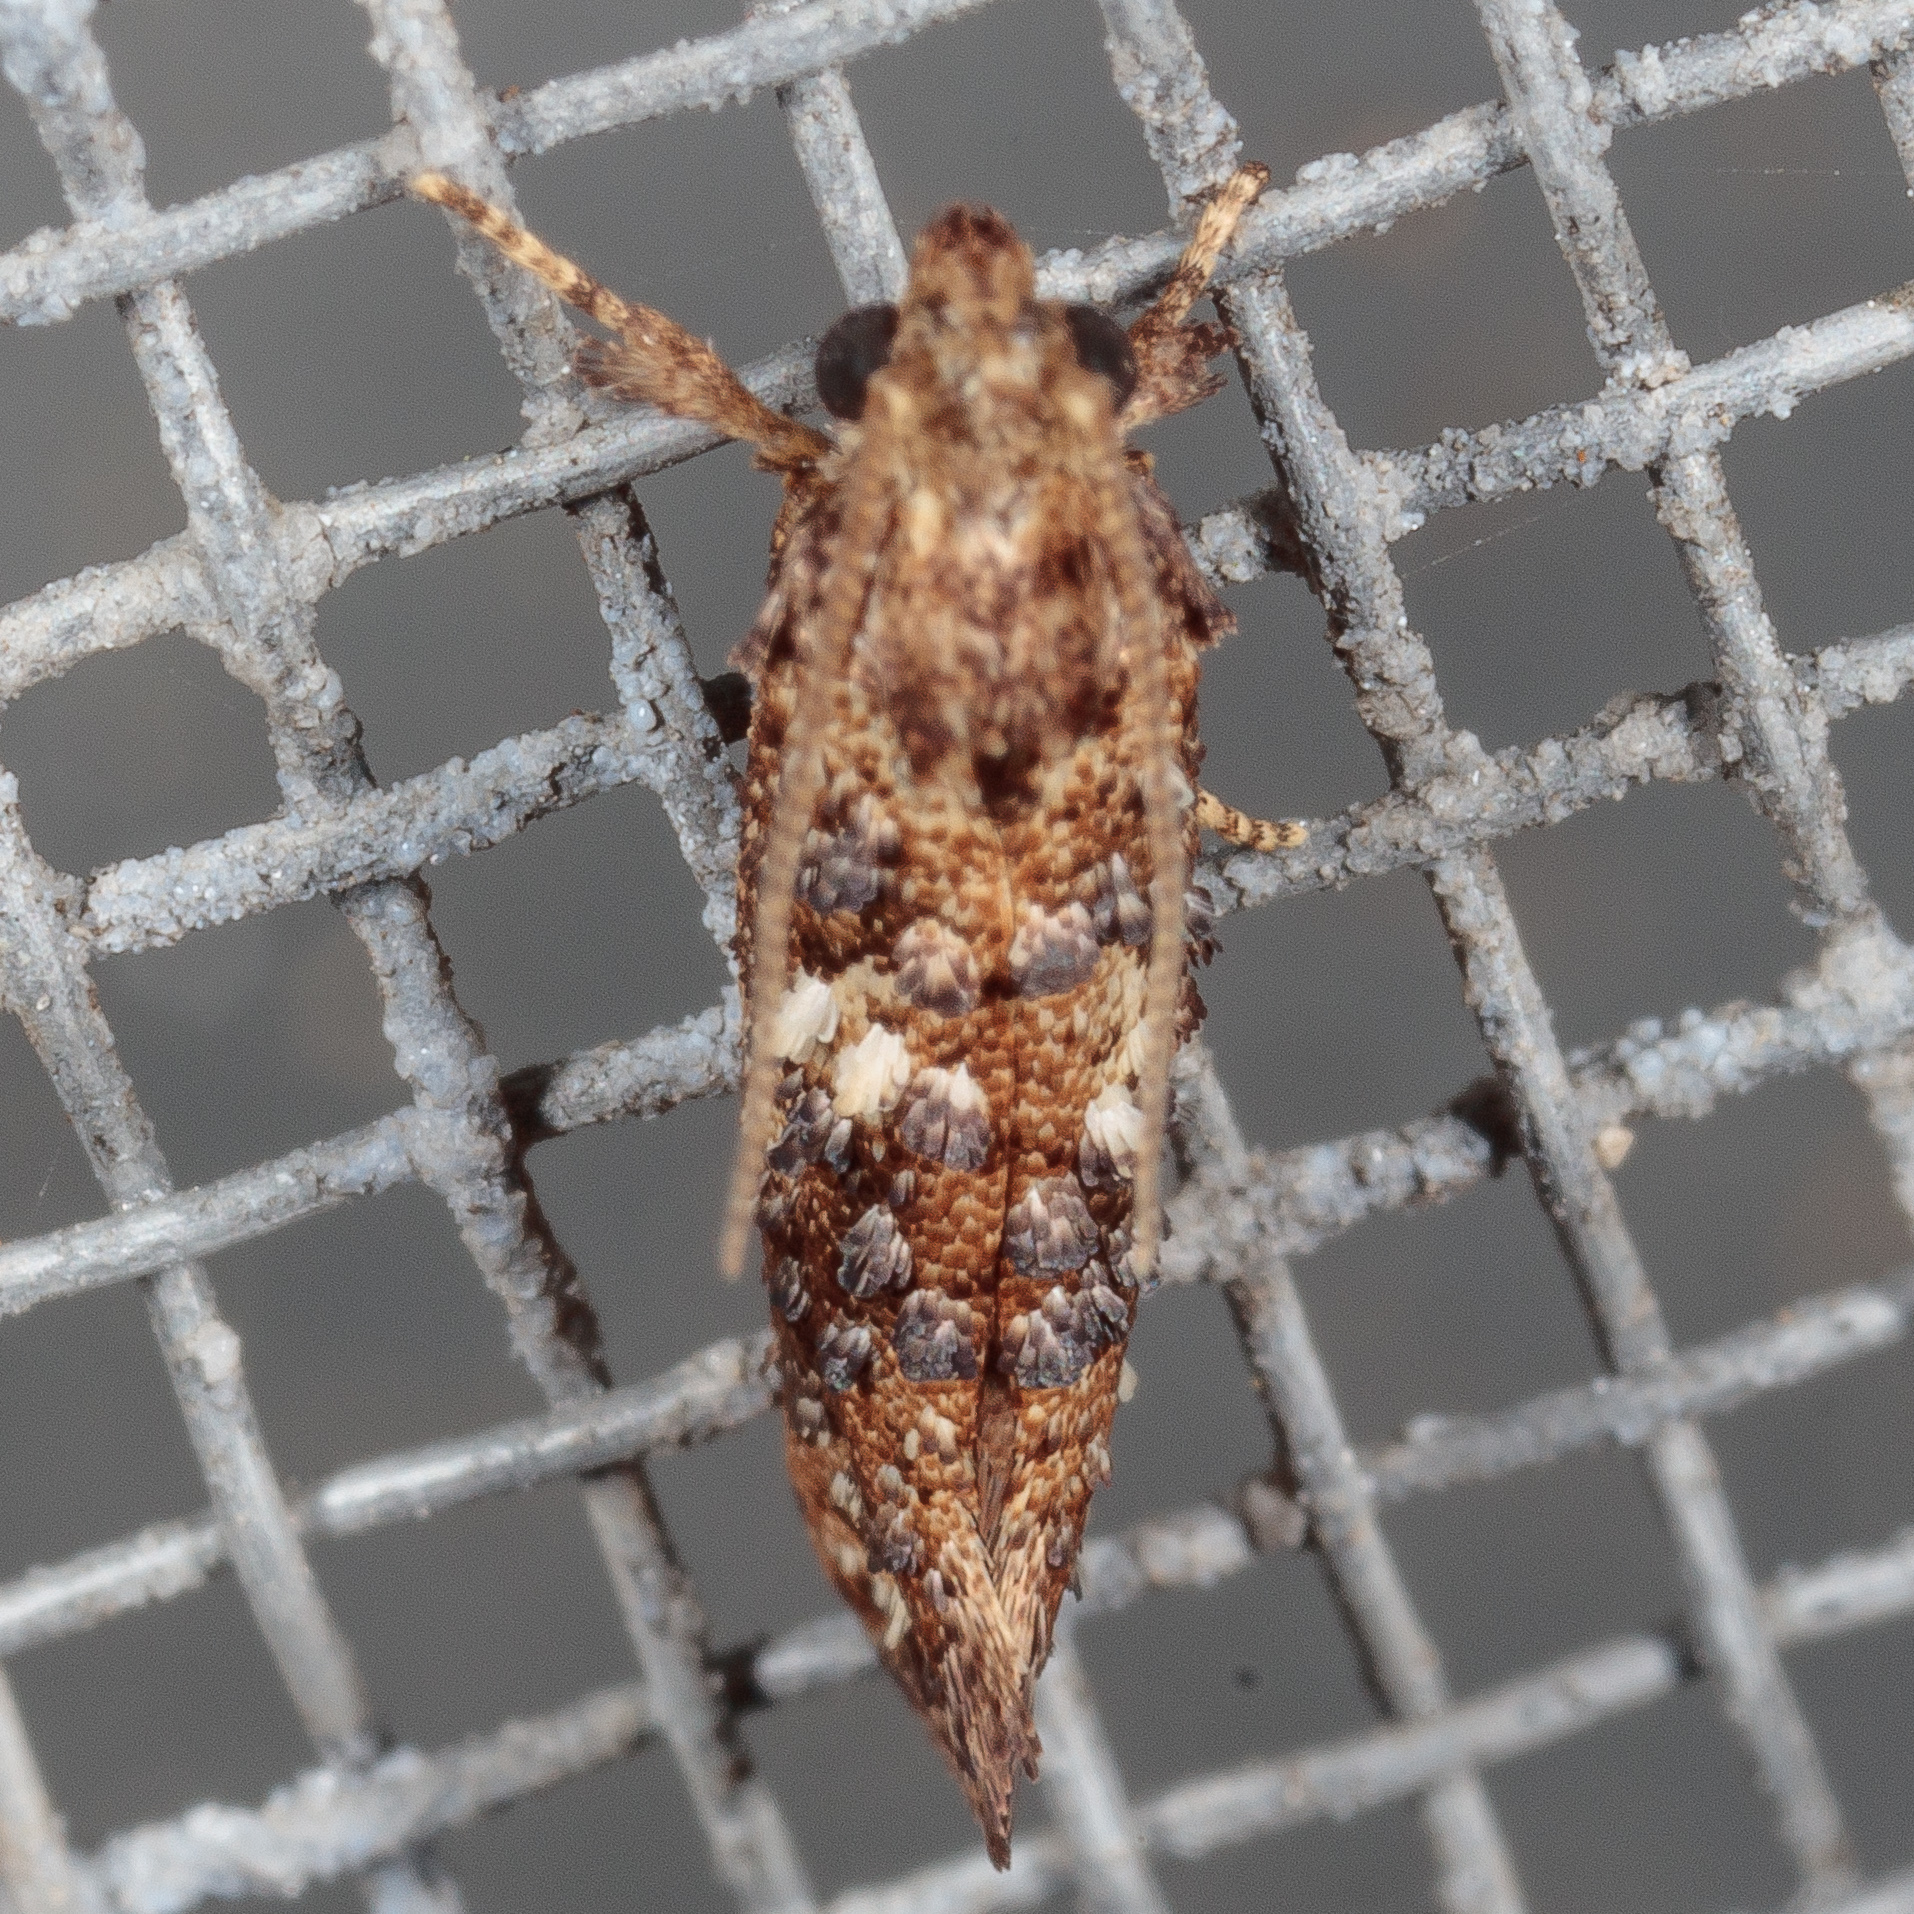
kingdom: Animalia
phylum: Arthropoda
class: Insecta
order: Lepidoptera
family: Tineidae
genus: Acrolophus
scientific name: Acrolophus cressoni
